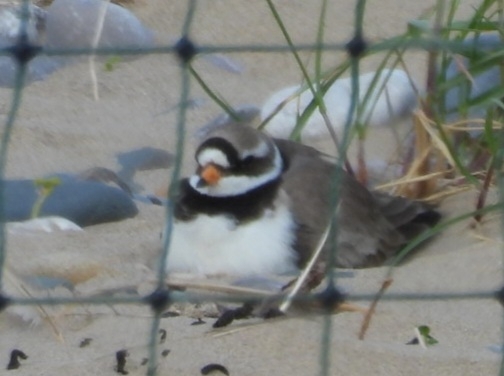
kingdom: Animalia
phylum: Chordata
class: Aves
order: Charadriiformes
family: Charadriidae
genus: Charadrius
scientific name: Charadrius hiaticula
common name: Common ringed plover
